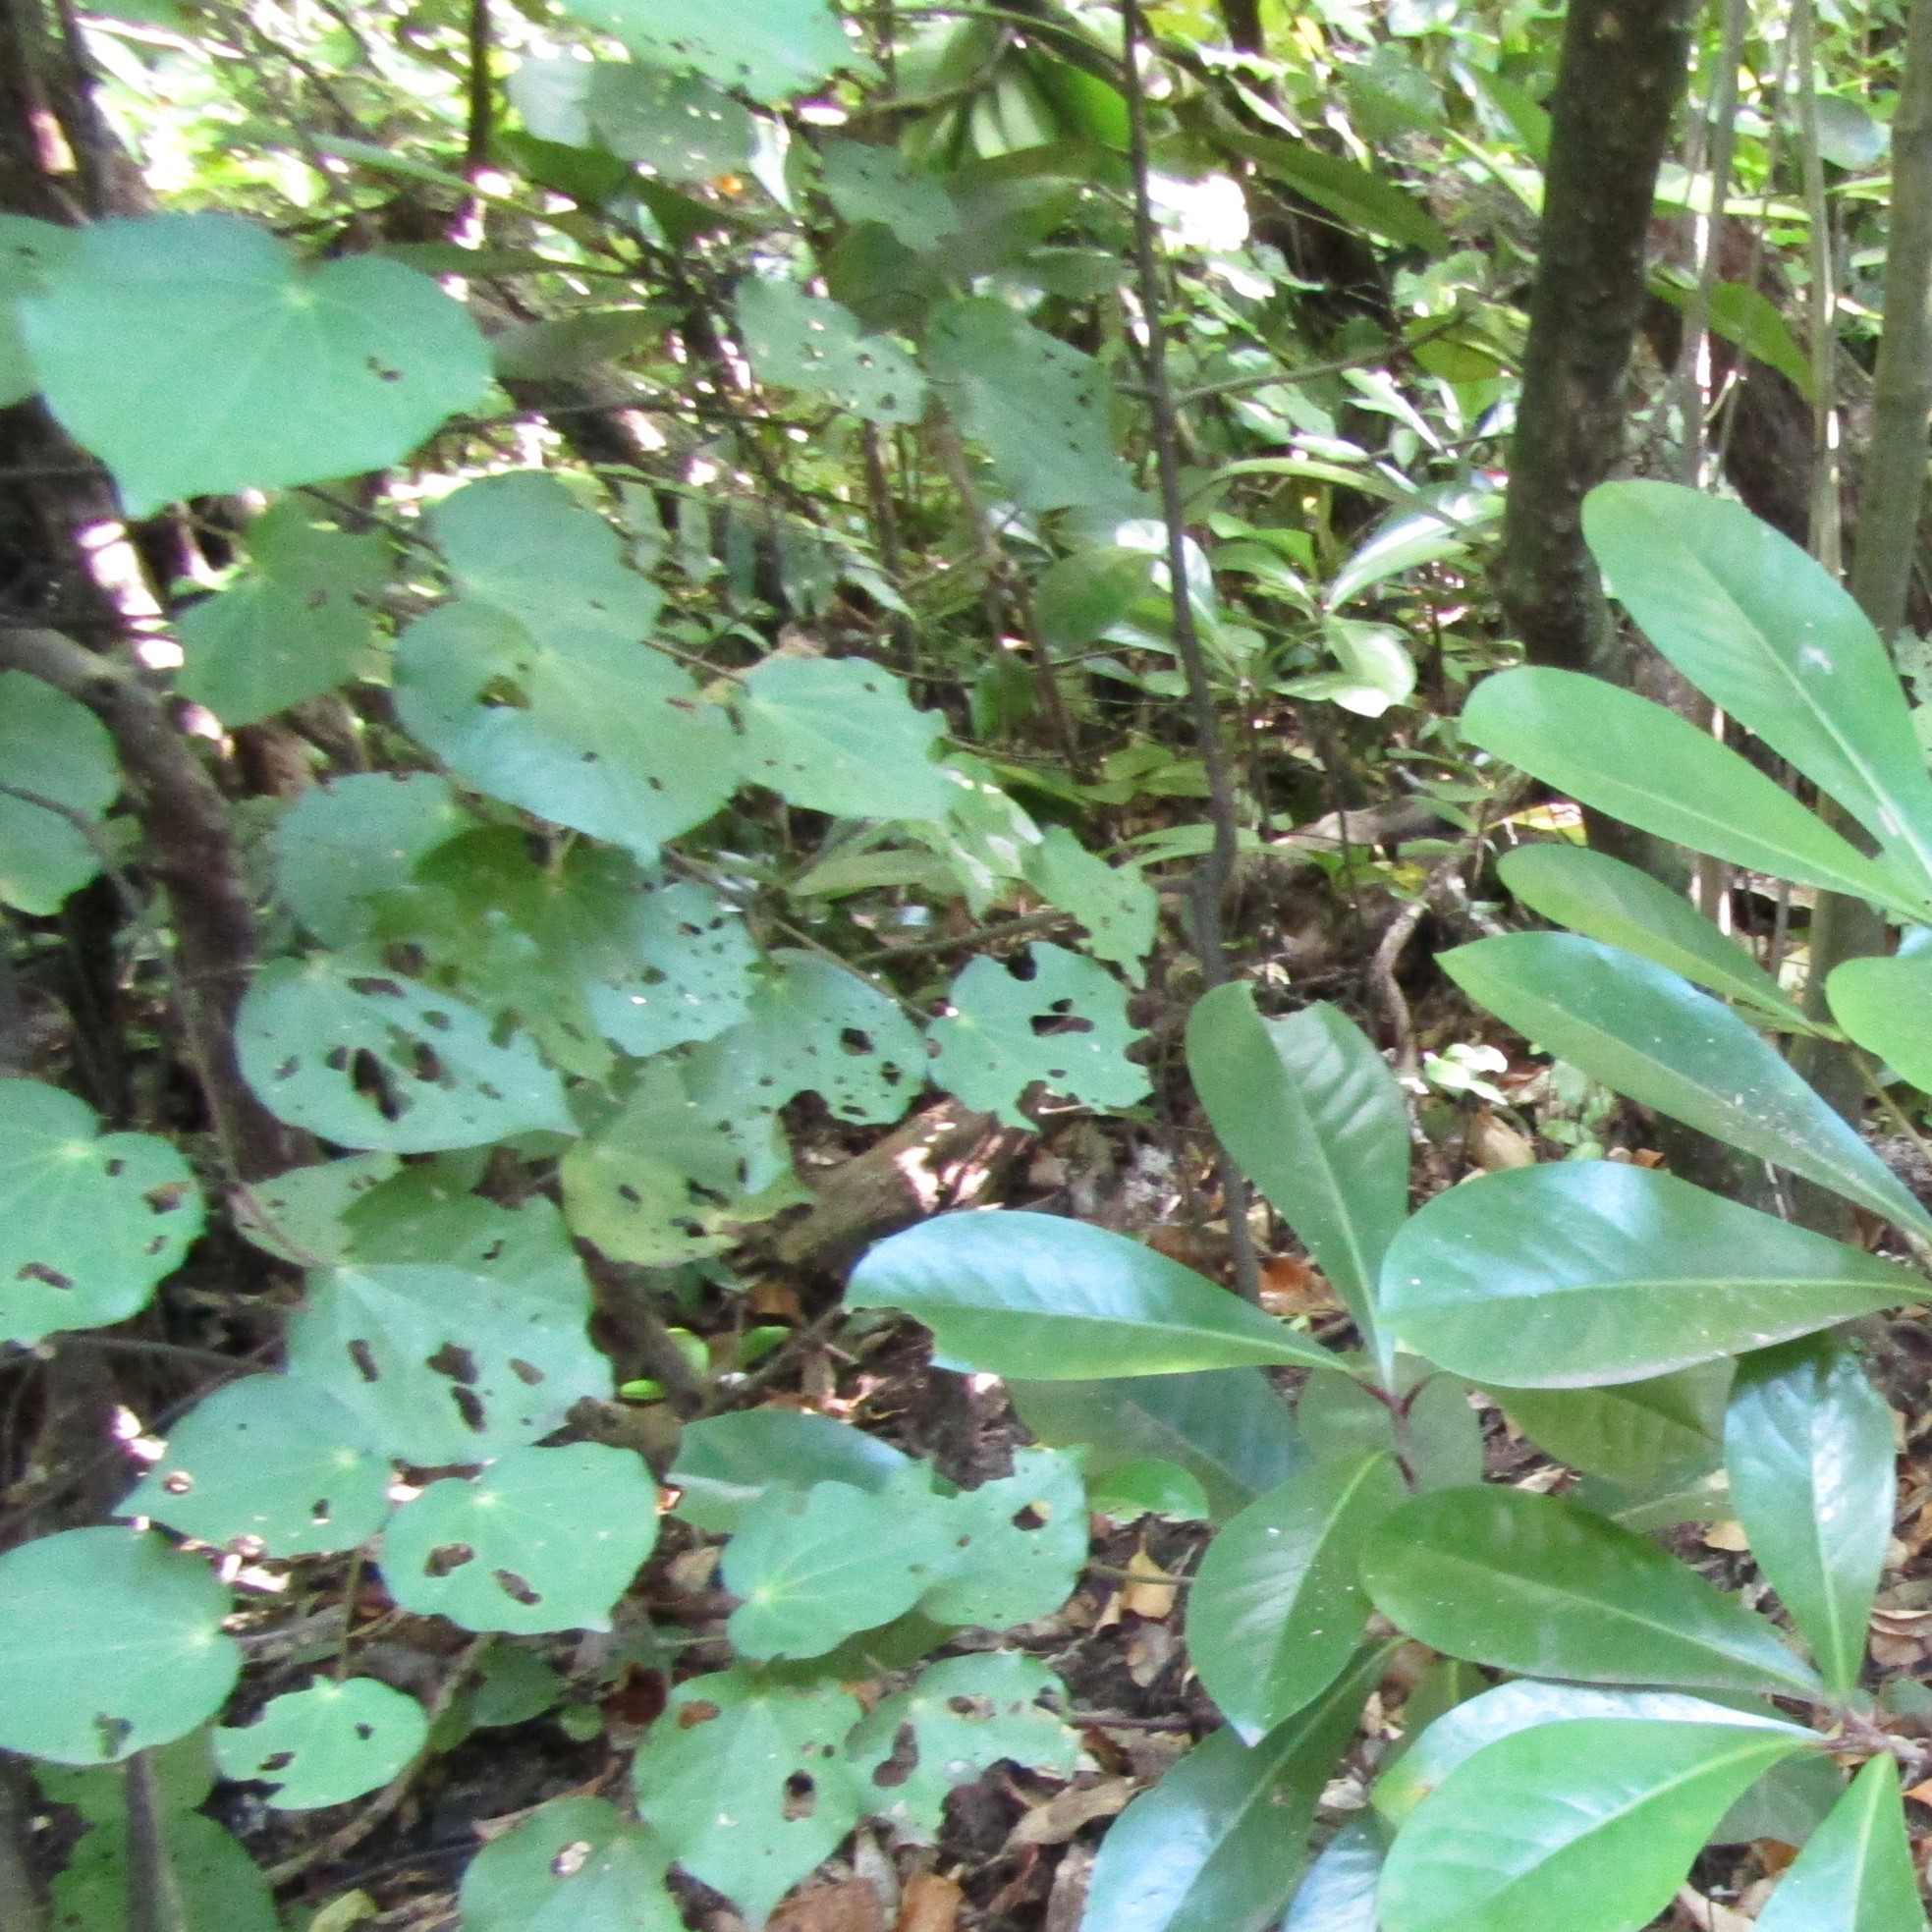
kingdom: Plantae
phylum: Tracheophyta
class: Magnoliopsida
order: Piperales
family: Piperaceae
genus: Macropiper
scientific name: Macropiper excelsum
